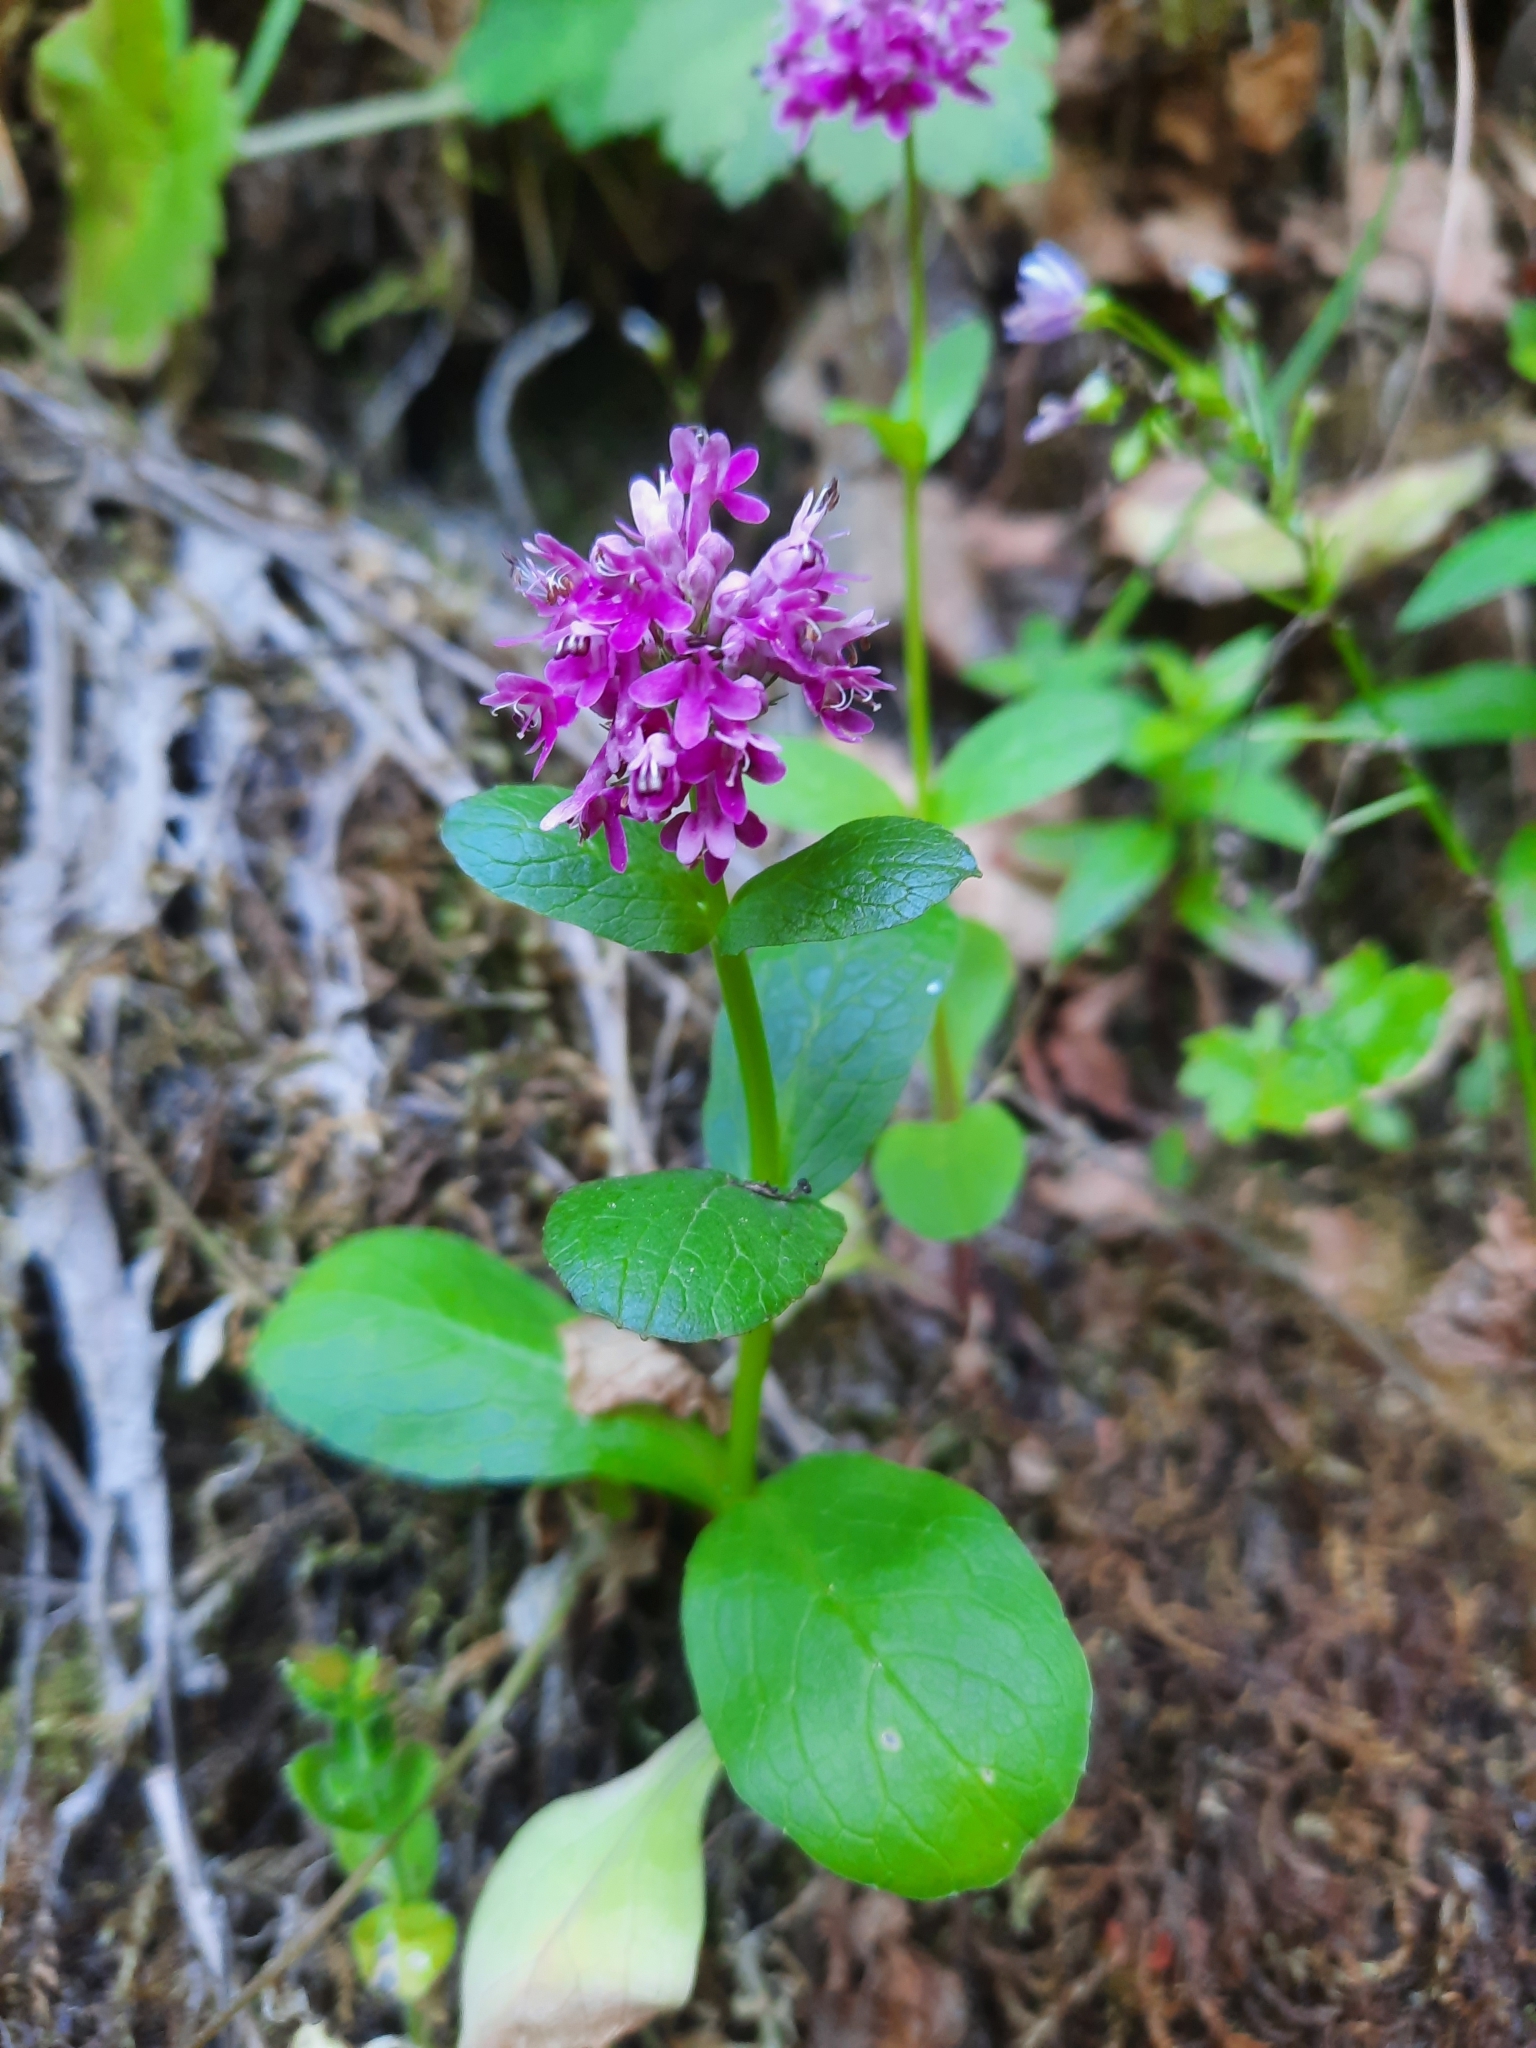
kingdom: Plantae
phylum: Tracheophyta
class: Magnoliopsida
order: Dipsacales
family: Caprifoliaceae
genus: Plectritis
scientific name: Plectritis congesta
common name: Pink plectritis
